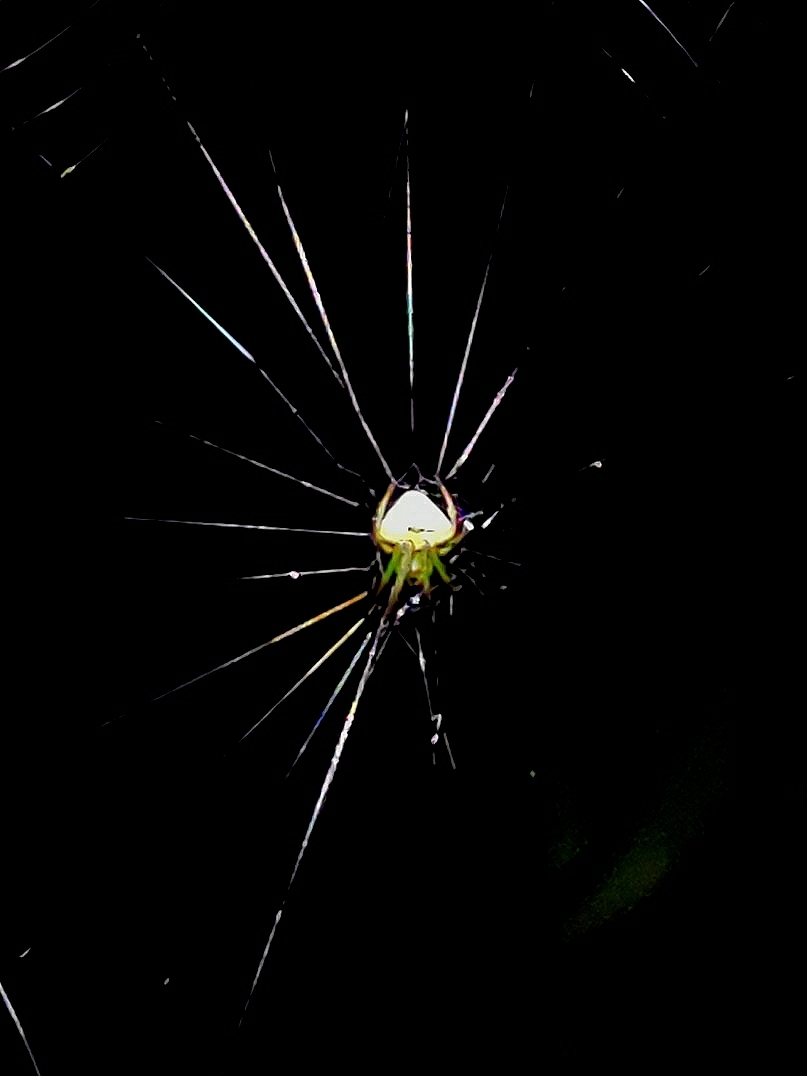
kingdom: Animalia
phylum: Arthropoda
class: Arachnida
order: Araneae
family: Araneidae
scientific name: Araneidae
